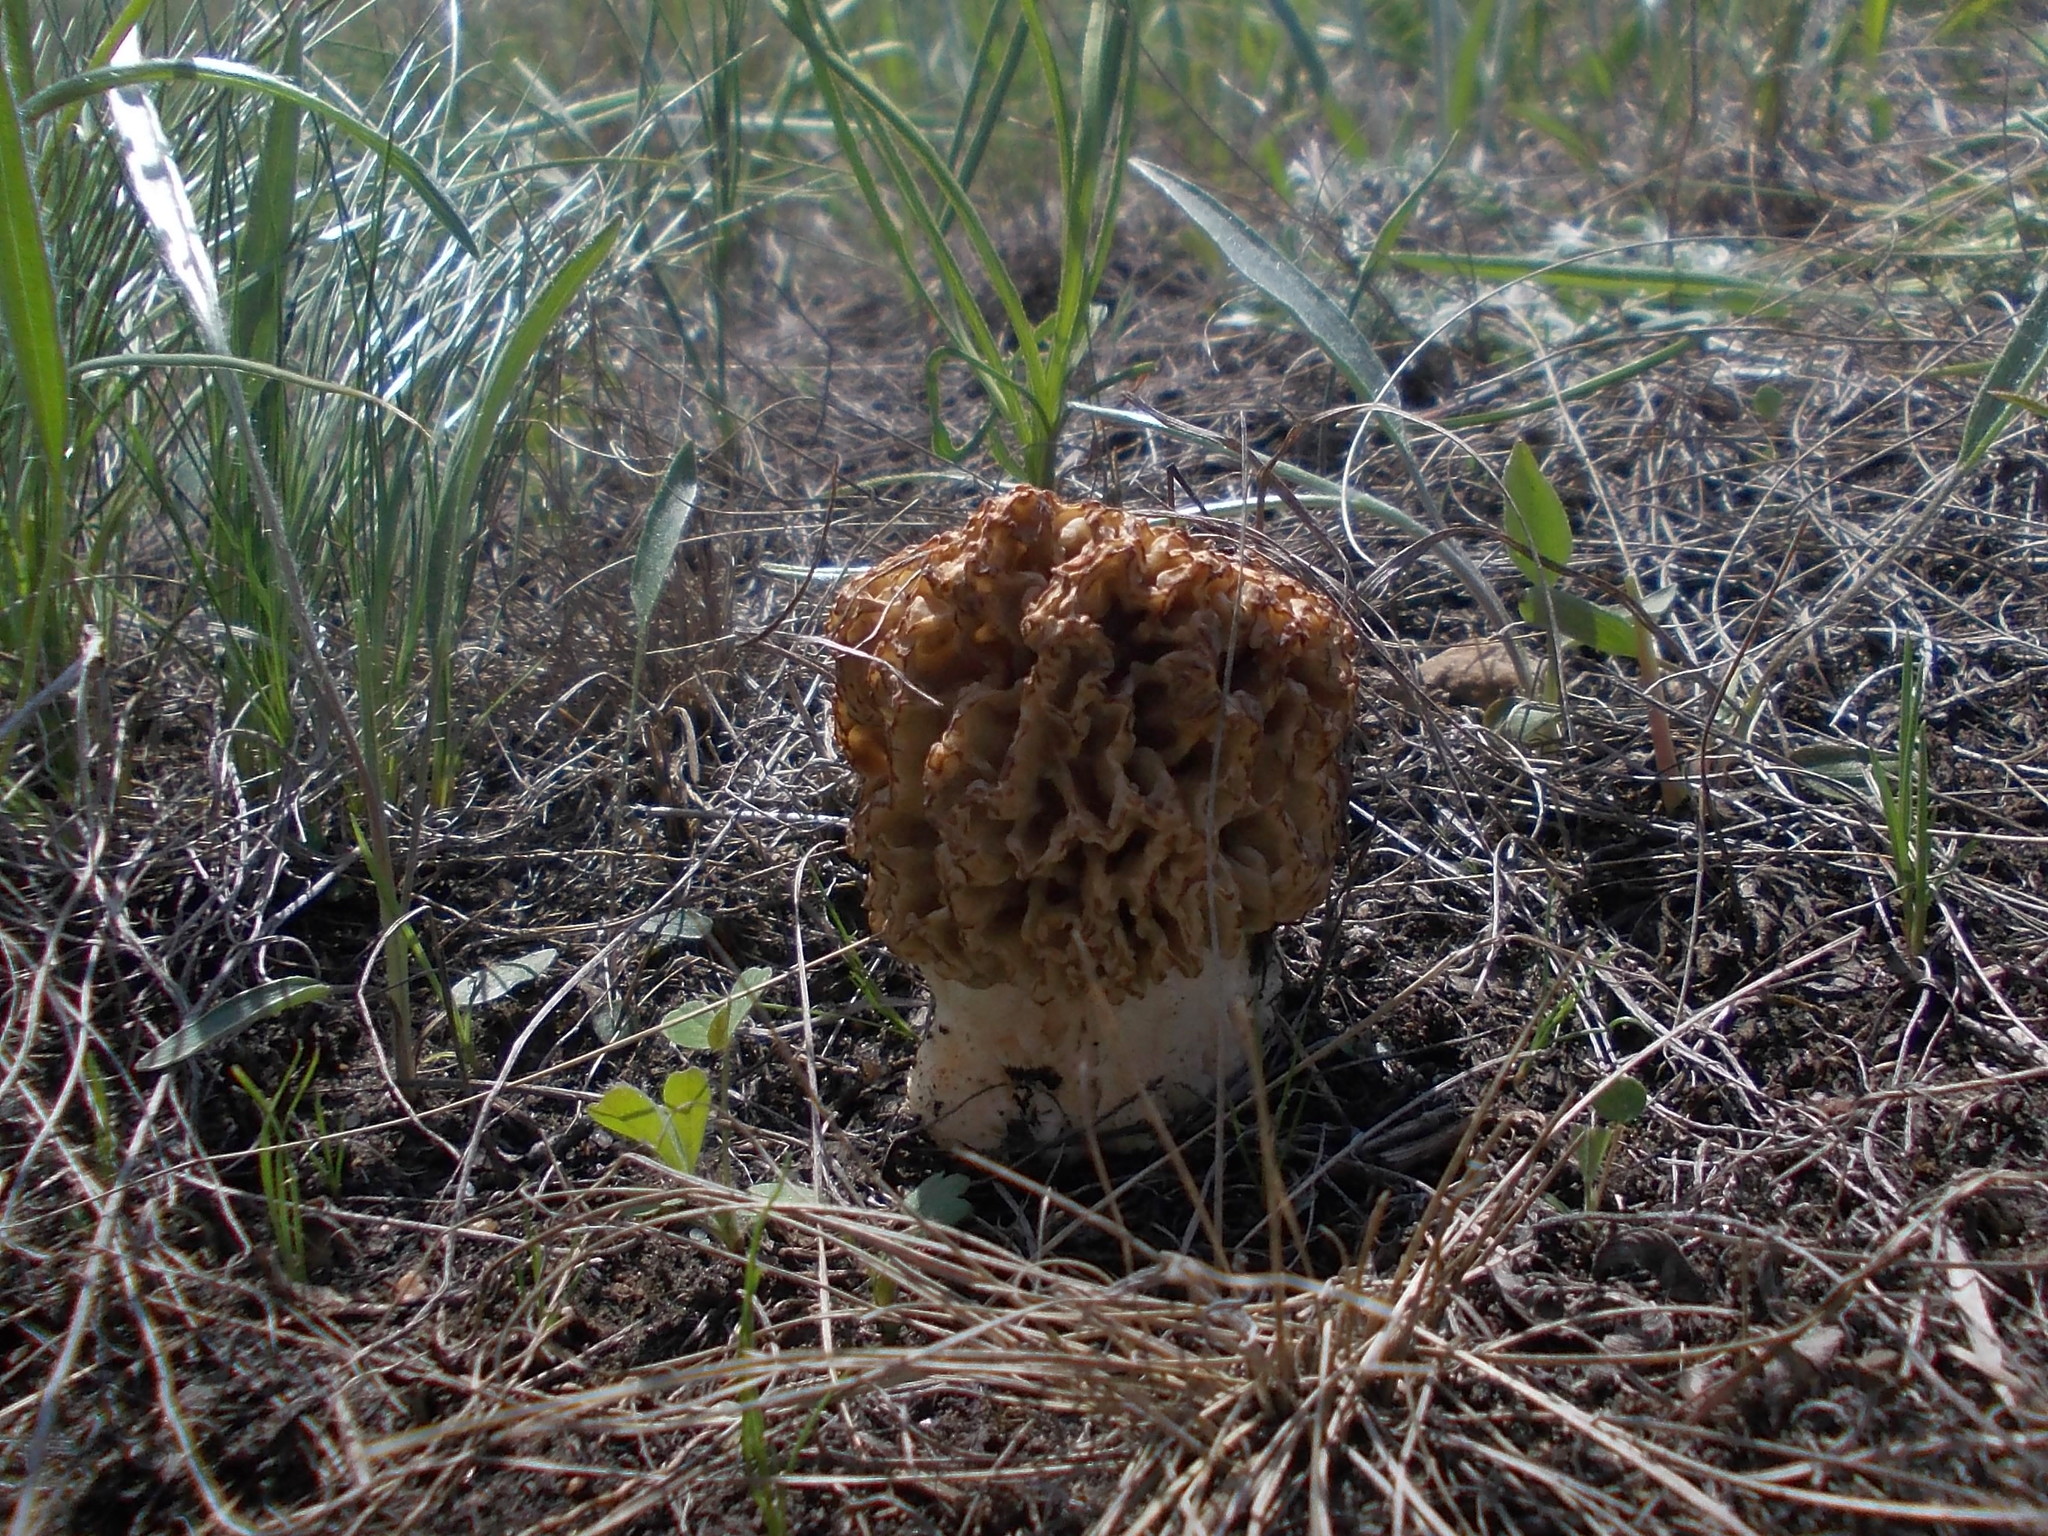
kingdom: Fungi
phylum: Ascomycota
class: Pezizomycetes
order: Pezizales
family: Morchellaceae
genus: Morchella
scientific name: Morchella steppicola
